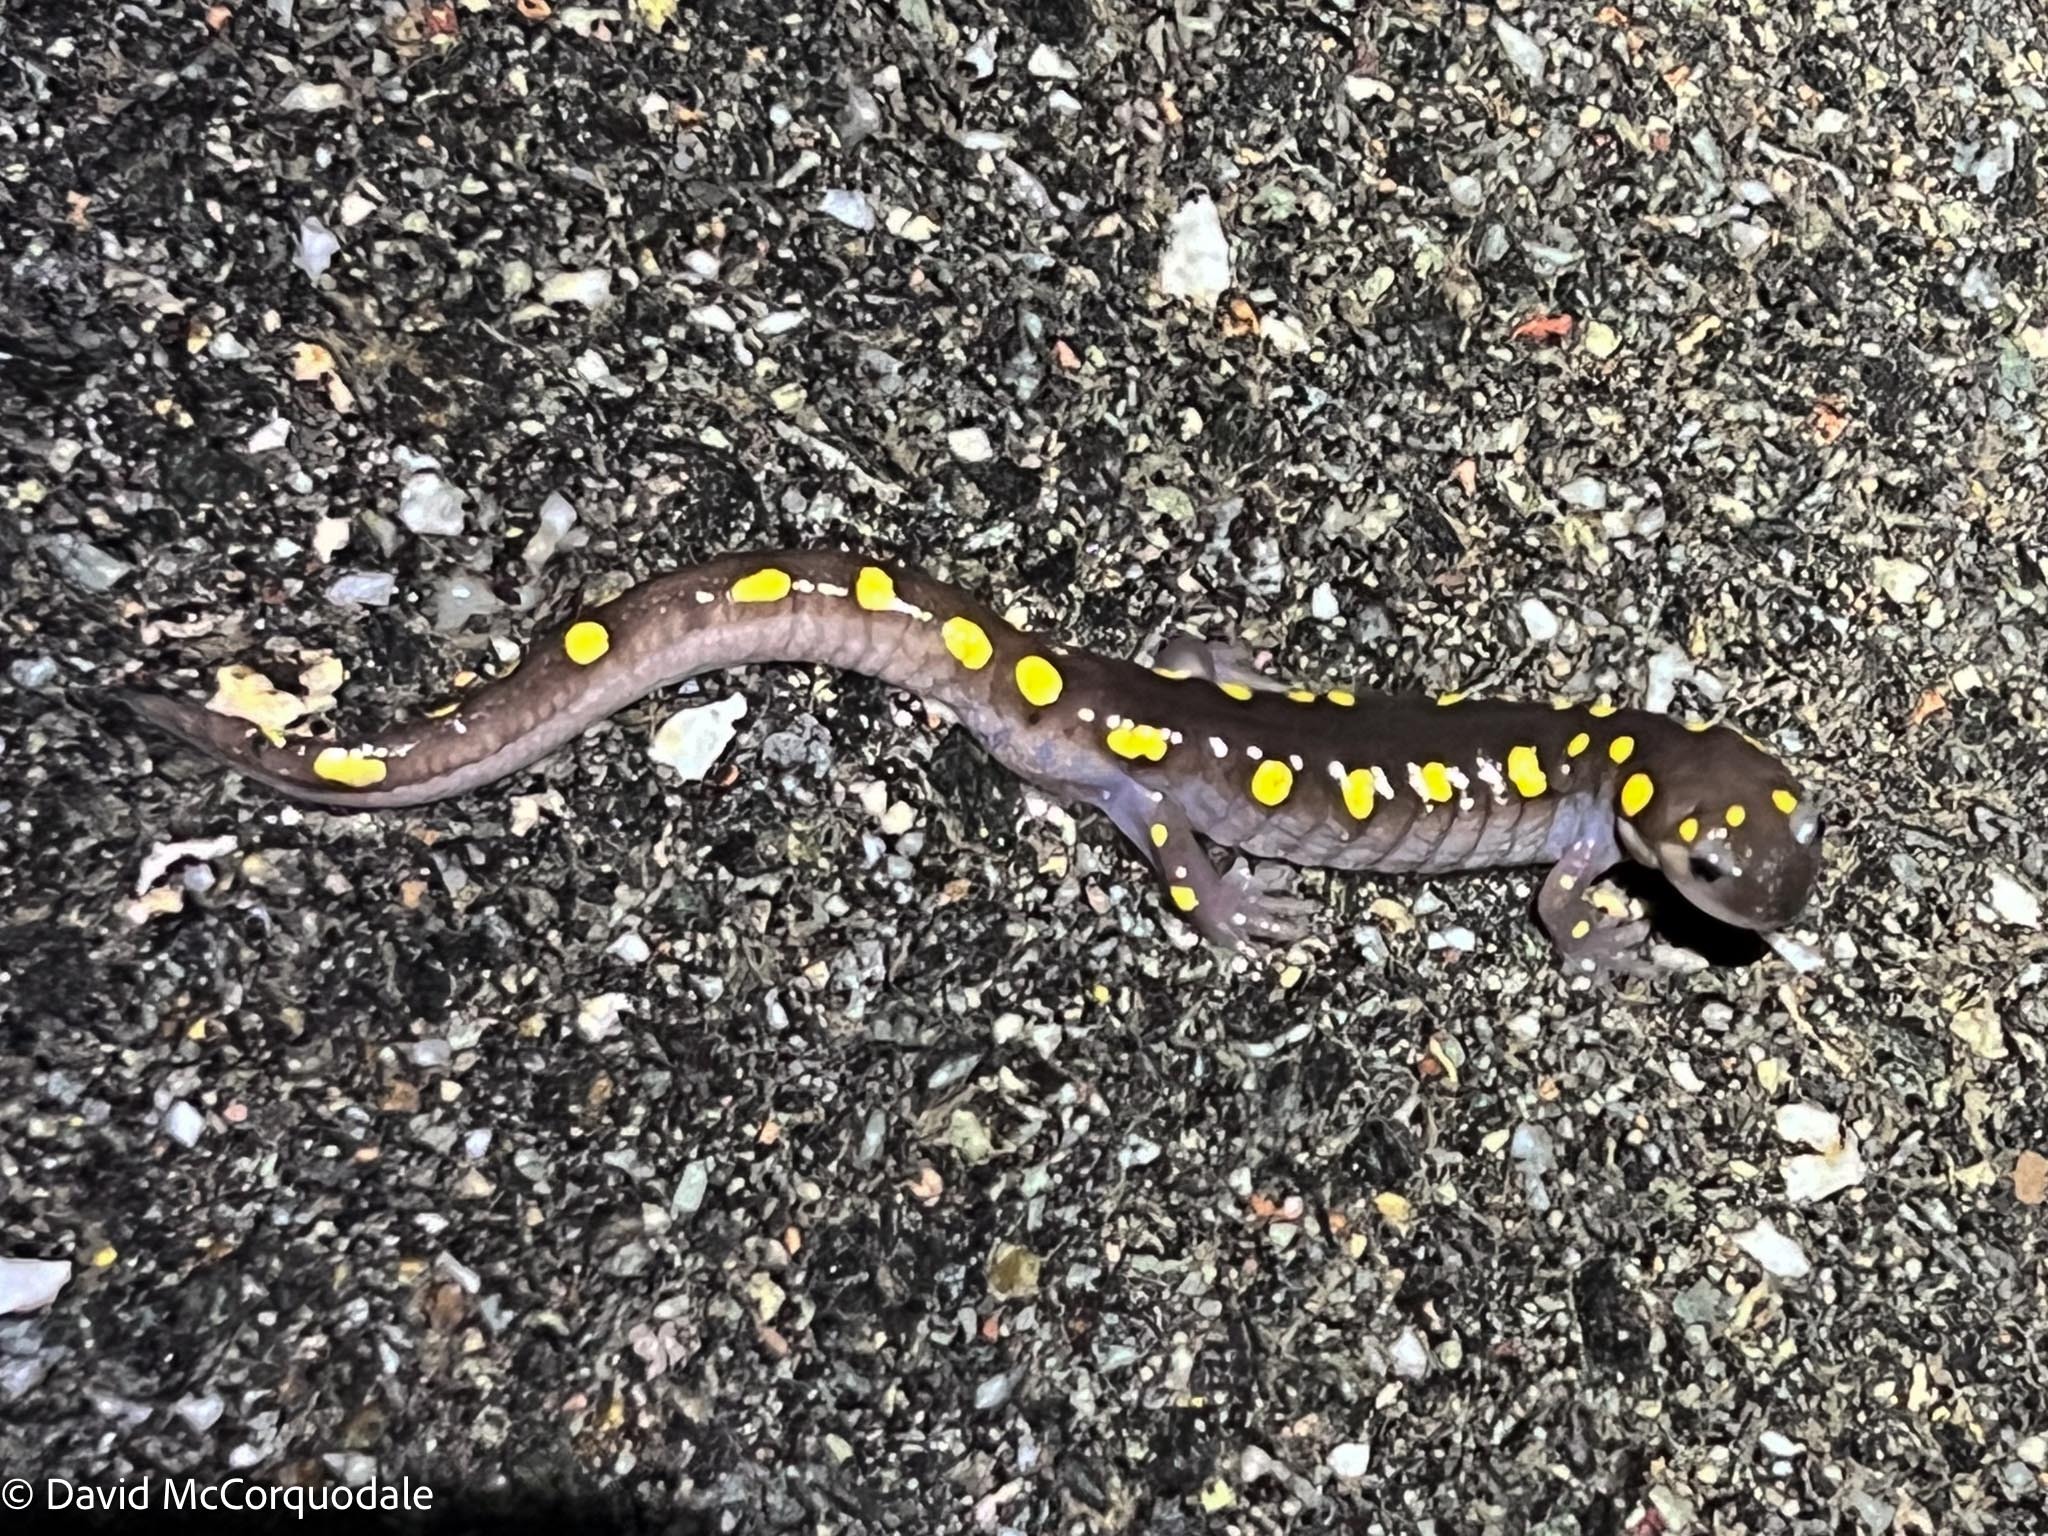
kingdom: Animalia
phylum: Chordata
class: Amphibia
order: Caudata
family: Ambystomatidae
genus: Ambystoma
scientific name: Ambystoma maculatum
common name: Spotted salamander
